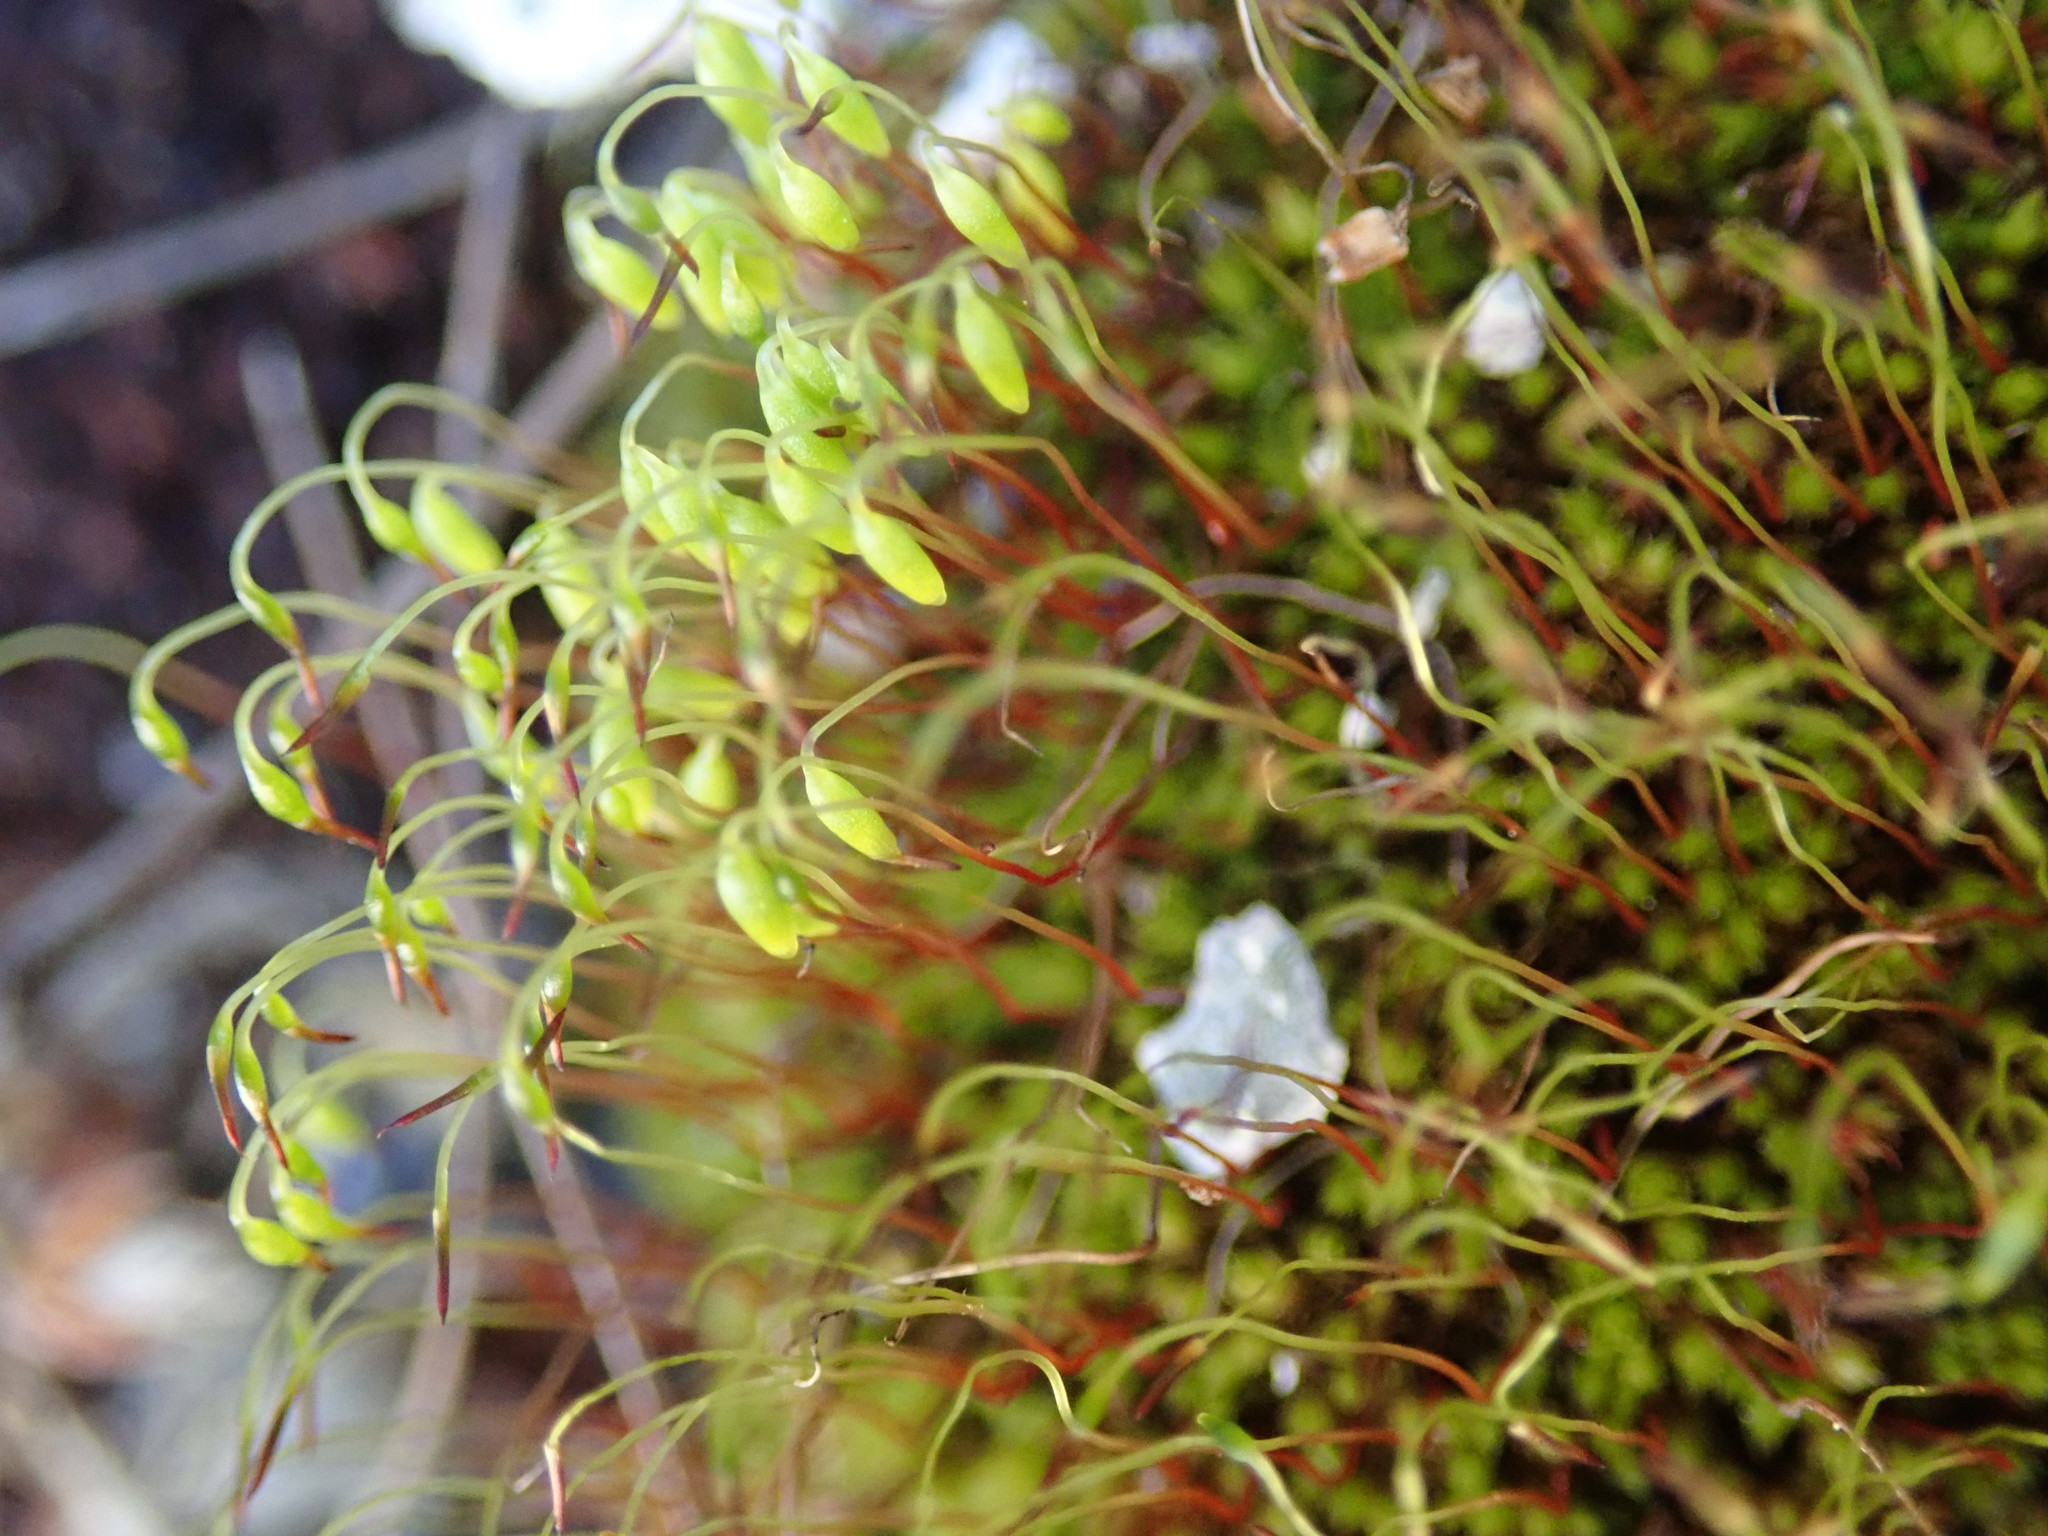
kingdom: Plantae
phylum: Bryophyta
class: Bryopsida
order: Funariales
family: Funariaceae
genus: Funaria
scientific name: Funaria hygrometrica
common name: Common cord moss
